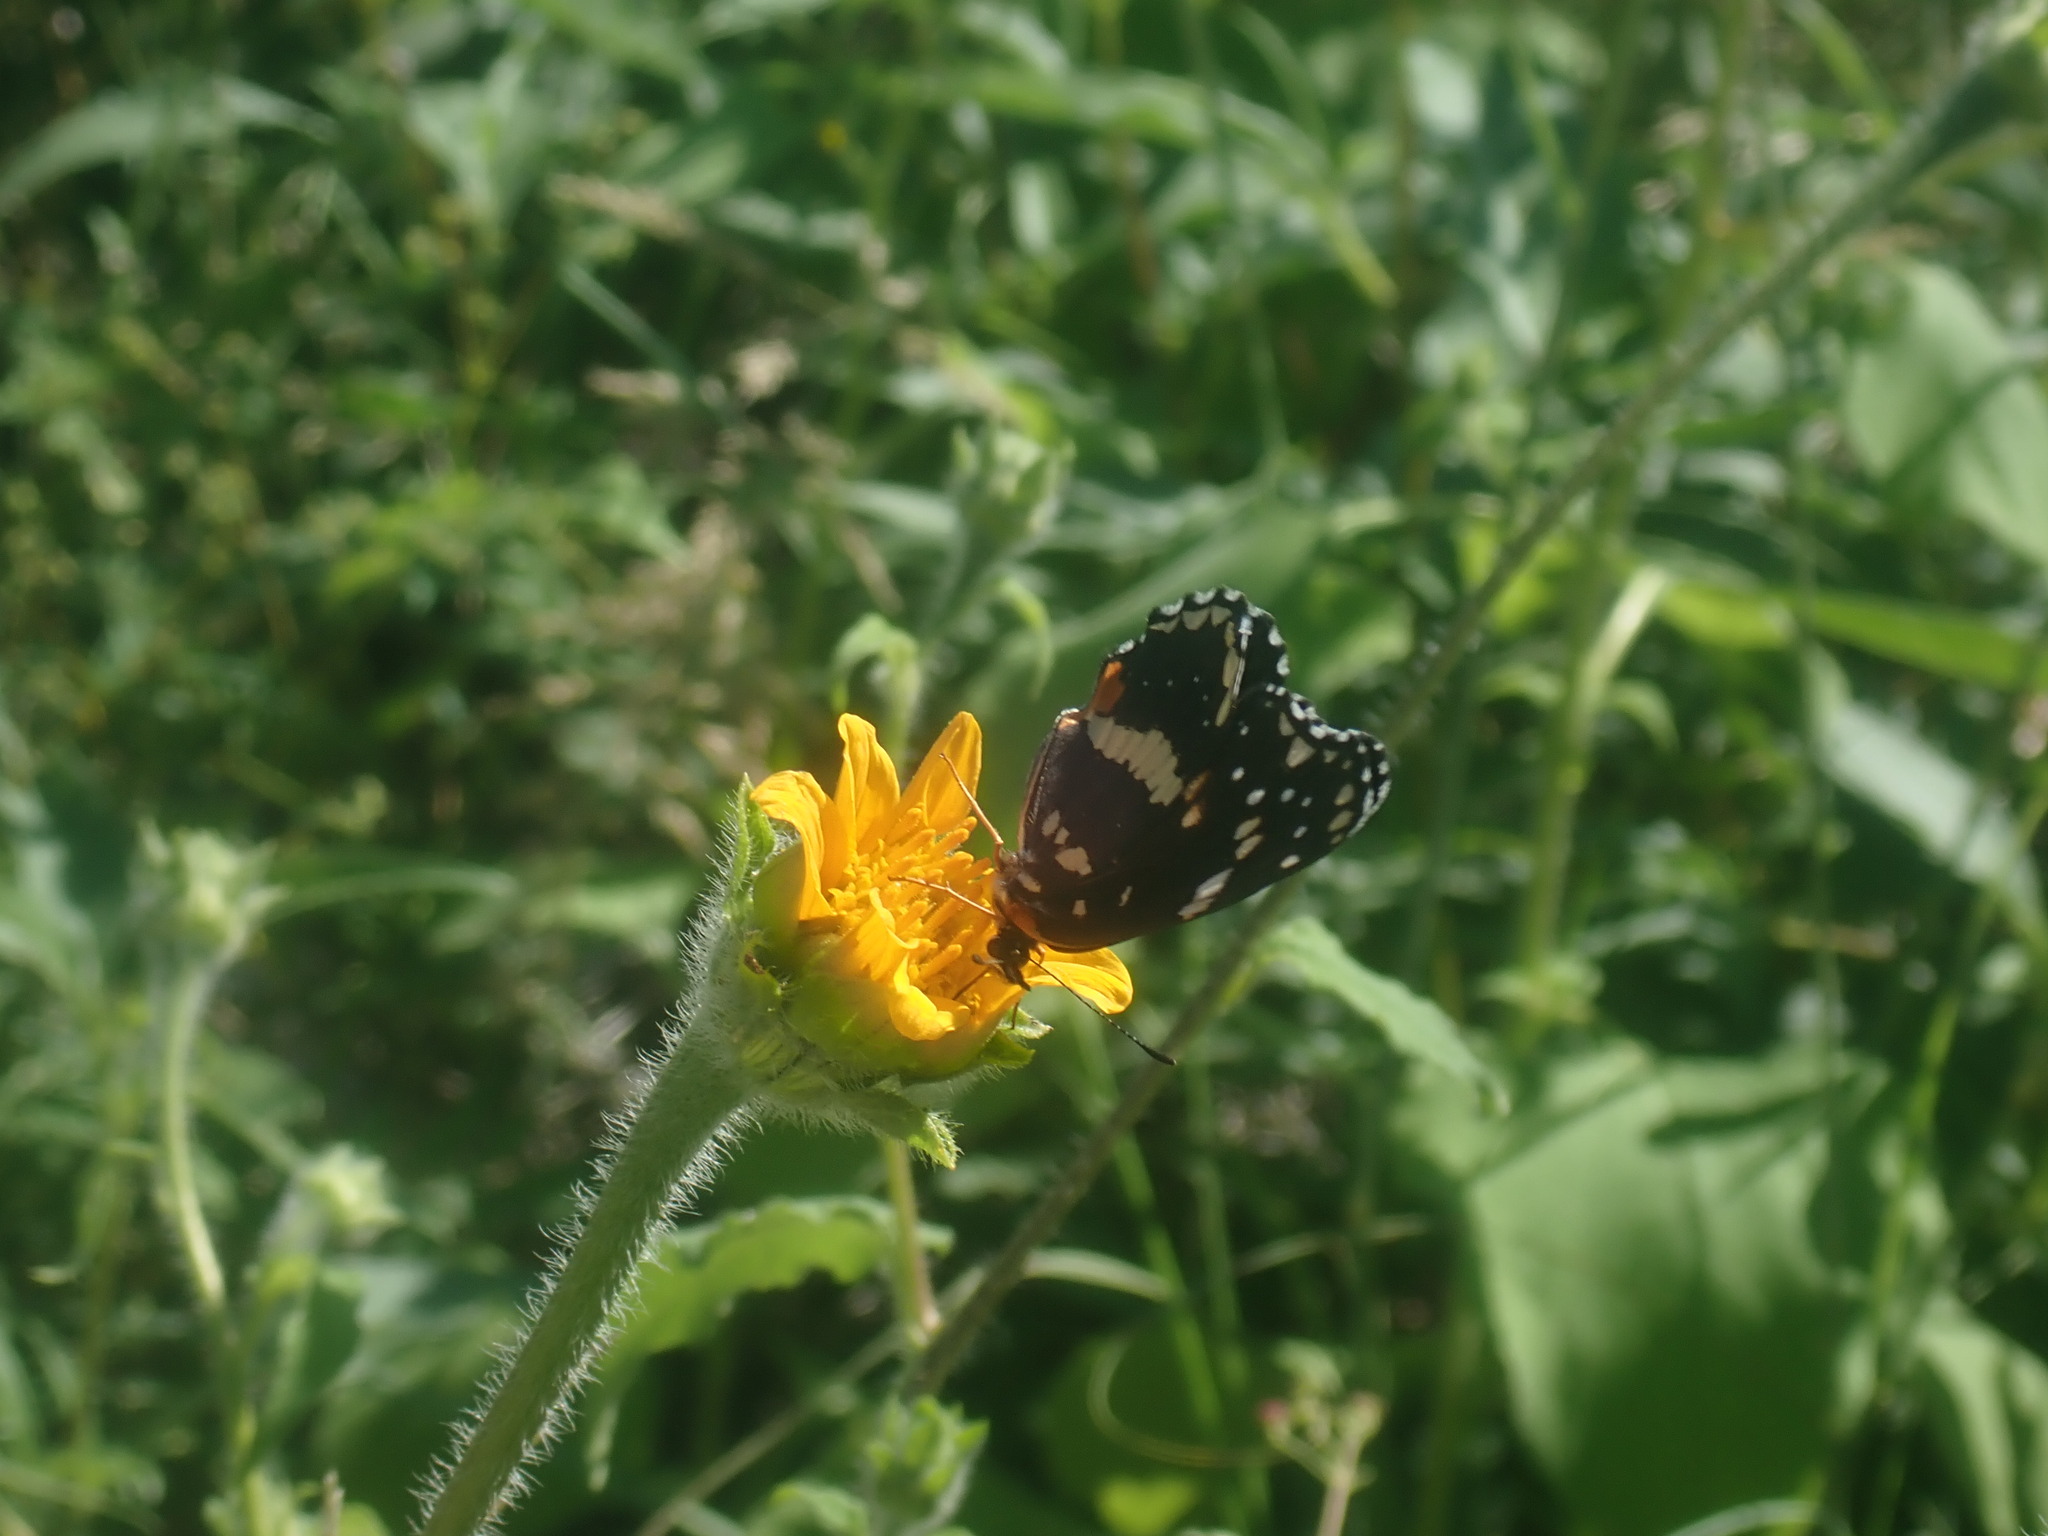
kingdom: Animalia
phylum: Arthropoda
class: Insecta
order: Lepidoptera
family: Nymphalidae
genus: Chlosyne
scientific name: Chlosyne lacinia
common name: Bordered patch
